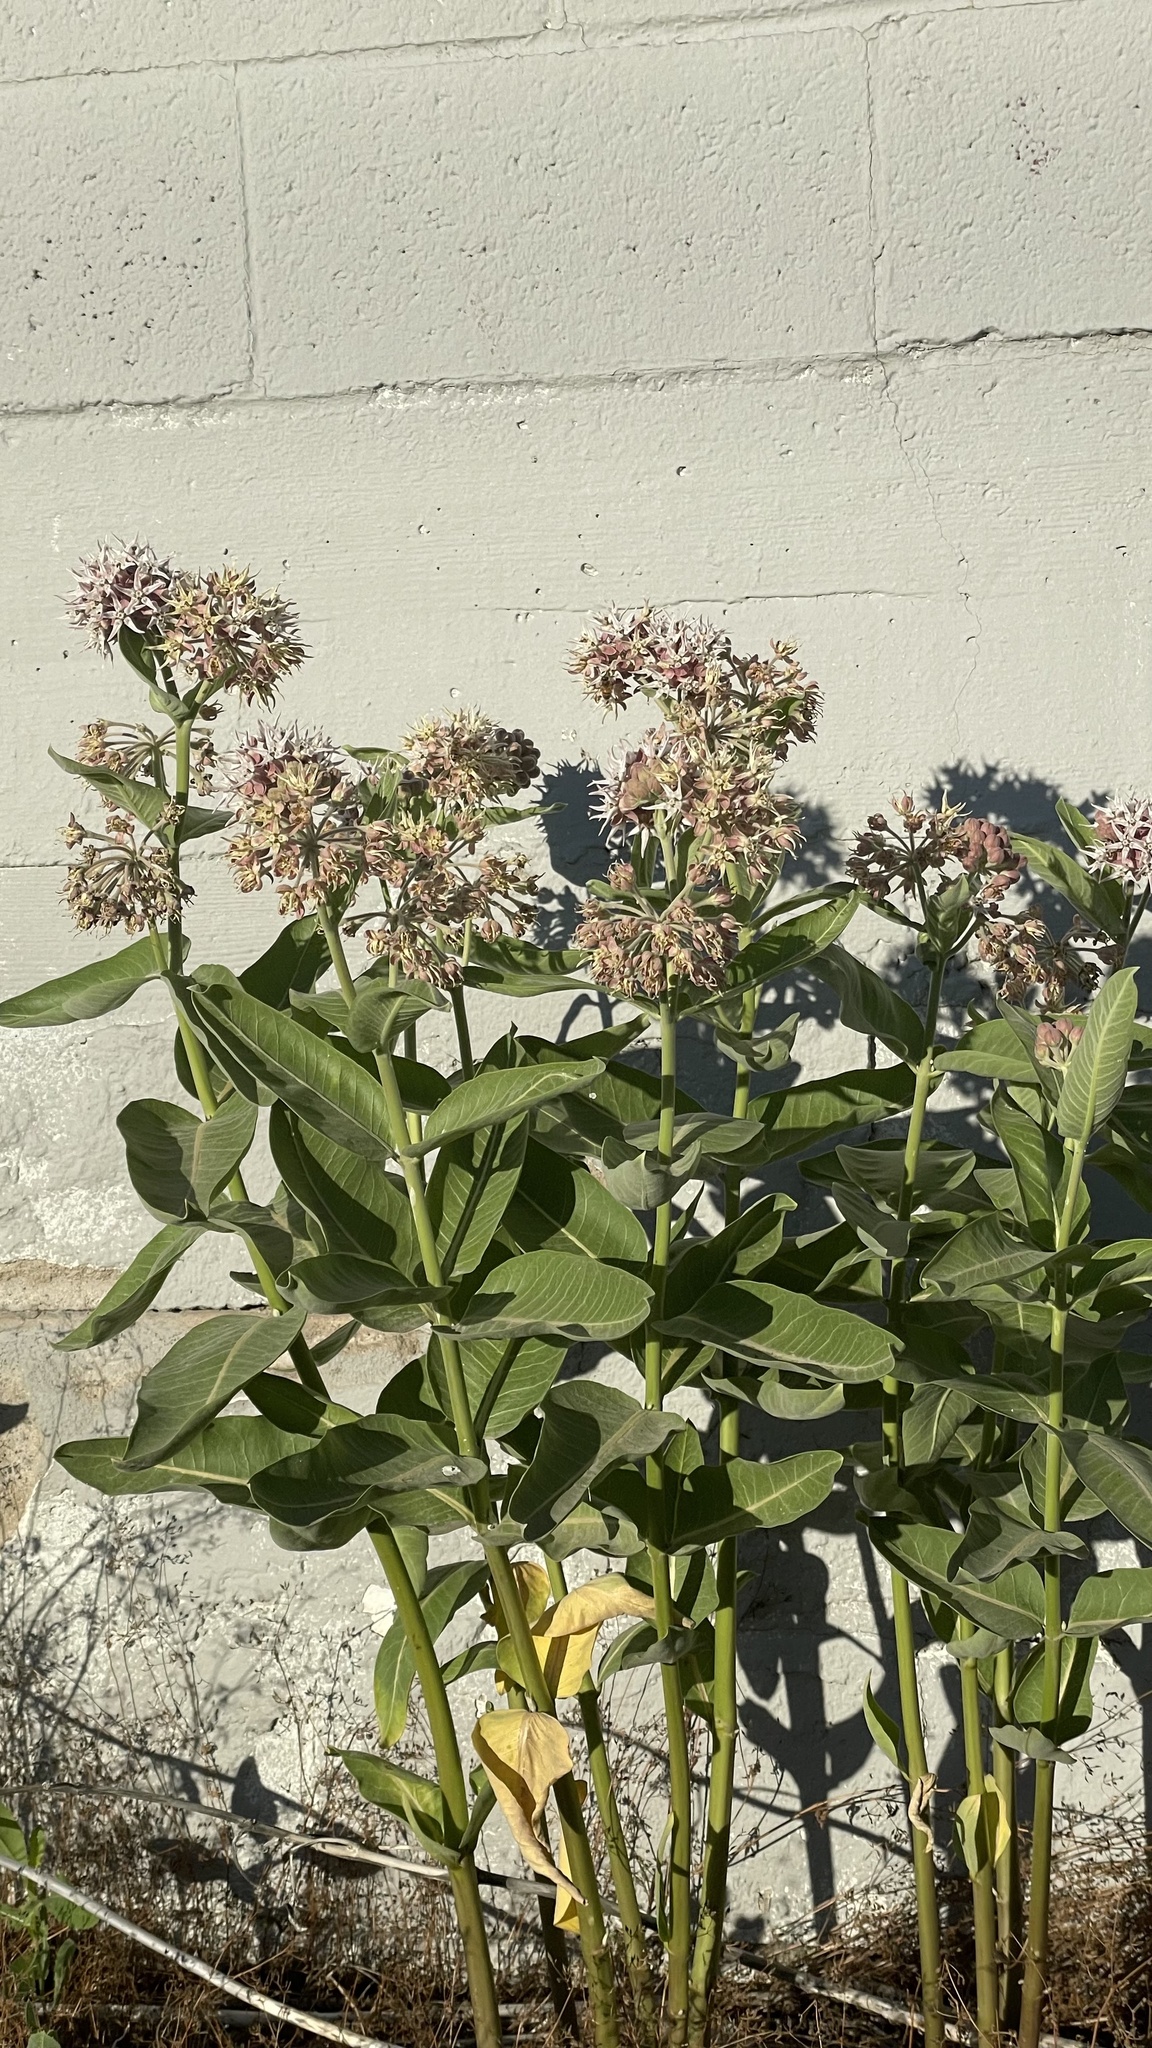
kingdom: Plantae
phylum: Tracheophyta
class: Magnoliopsida
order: Gentianales
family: Apocynaceae
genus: Asclepias
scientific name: Asclepias speciosa
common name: Showy milkweed
